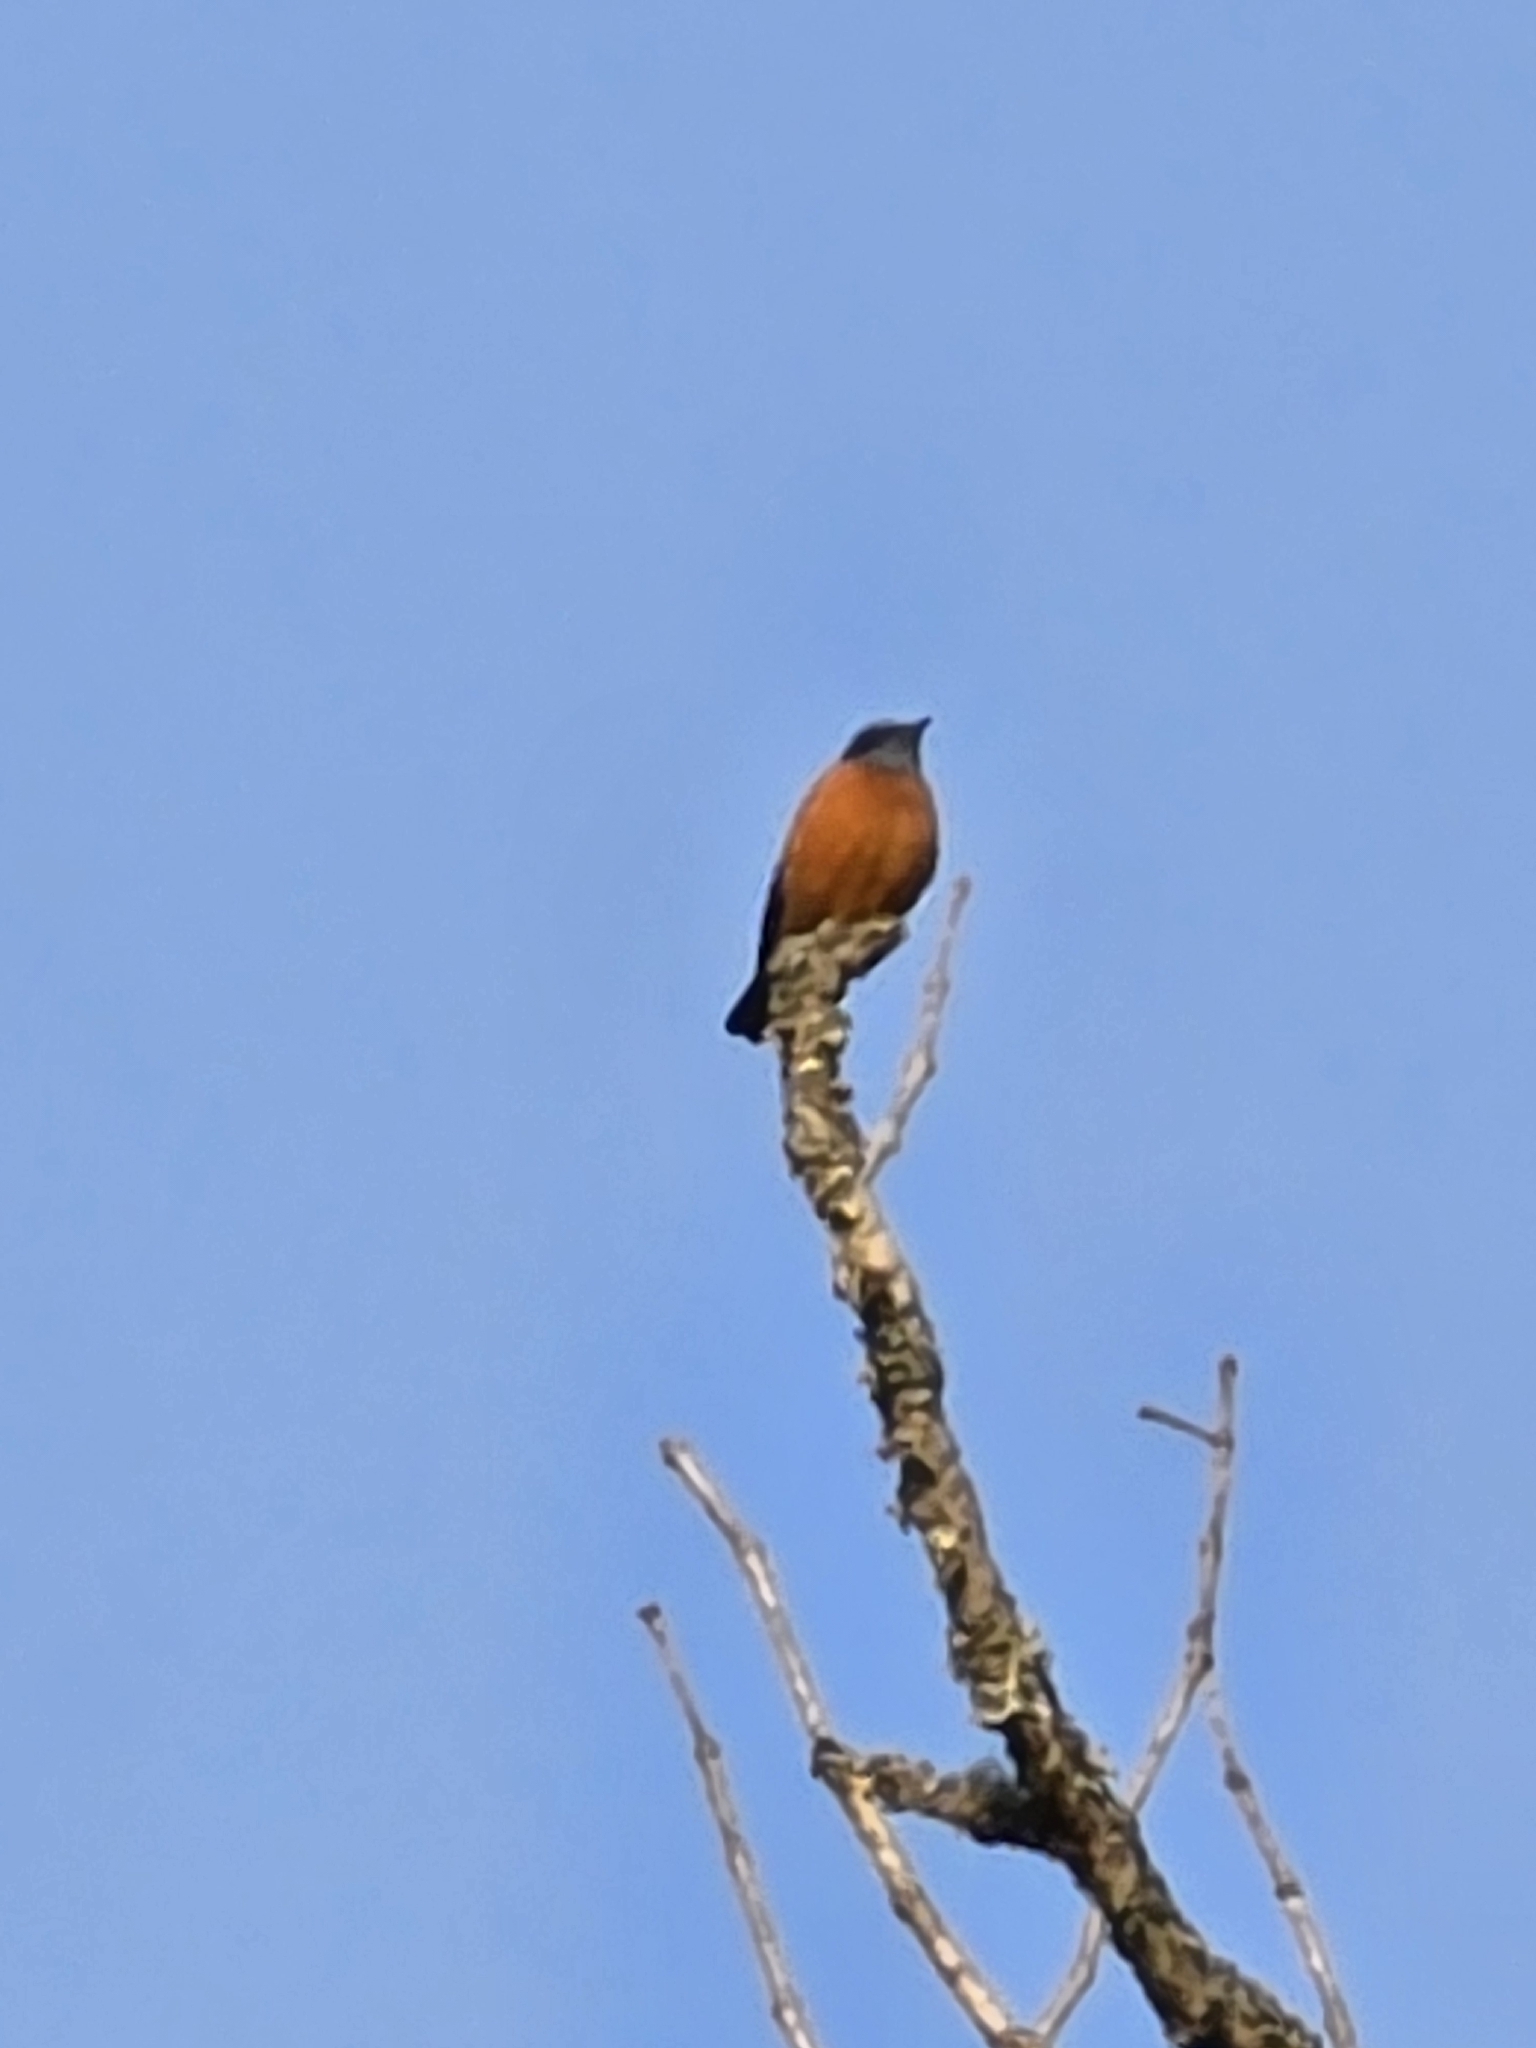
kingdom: Animalia
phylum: Chordata
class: Aves
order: Passeriformes
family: Muscicapidae
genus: Monticola
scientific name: Monticola cinclorhynchus
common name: Blue-capped rock thrush
